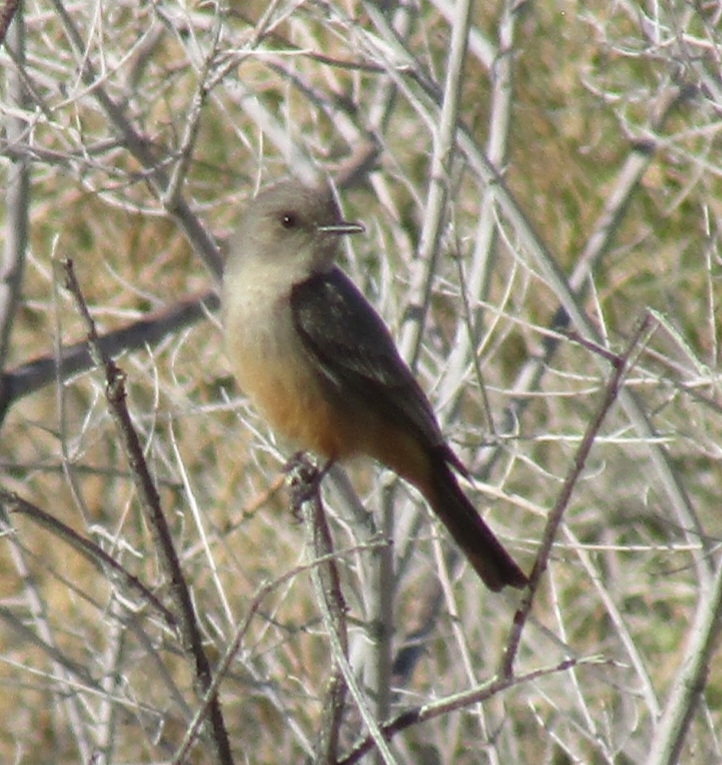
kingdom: Animalia
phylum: Chordata
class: Aves
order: Passeriformes
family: Tyrannidae
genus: Sayornis
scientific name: Sayornis saya
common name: Say's phoebe
